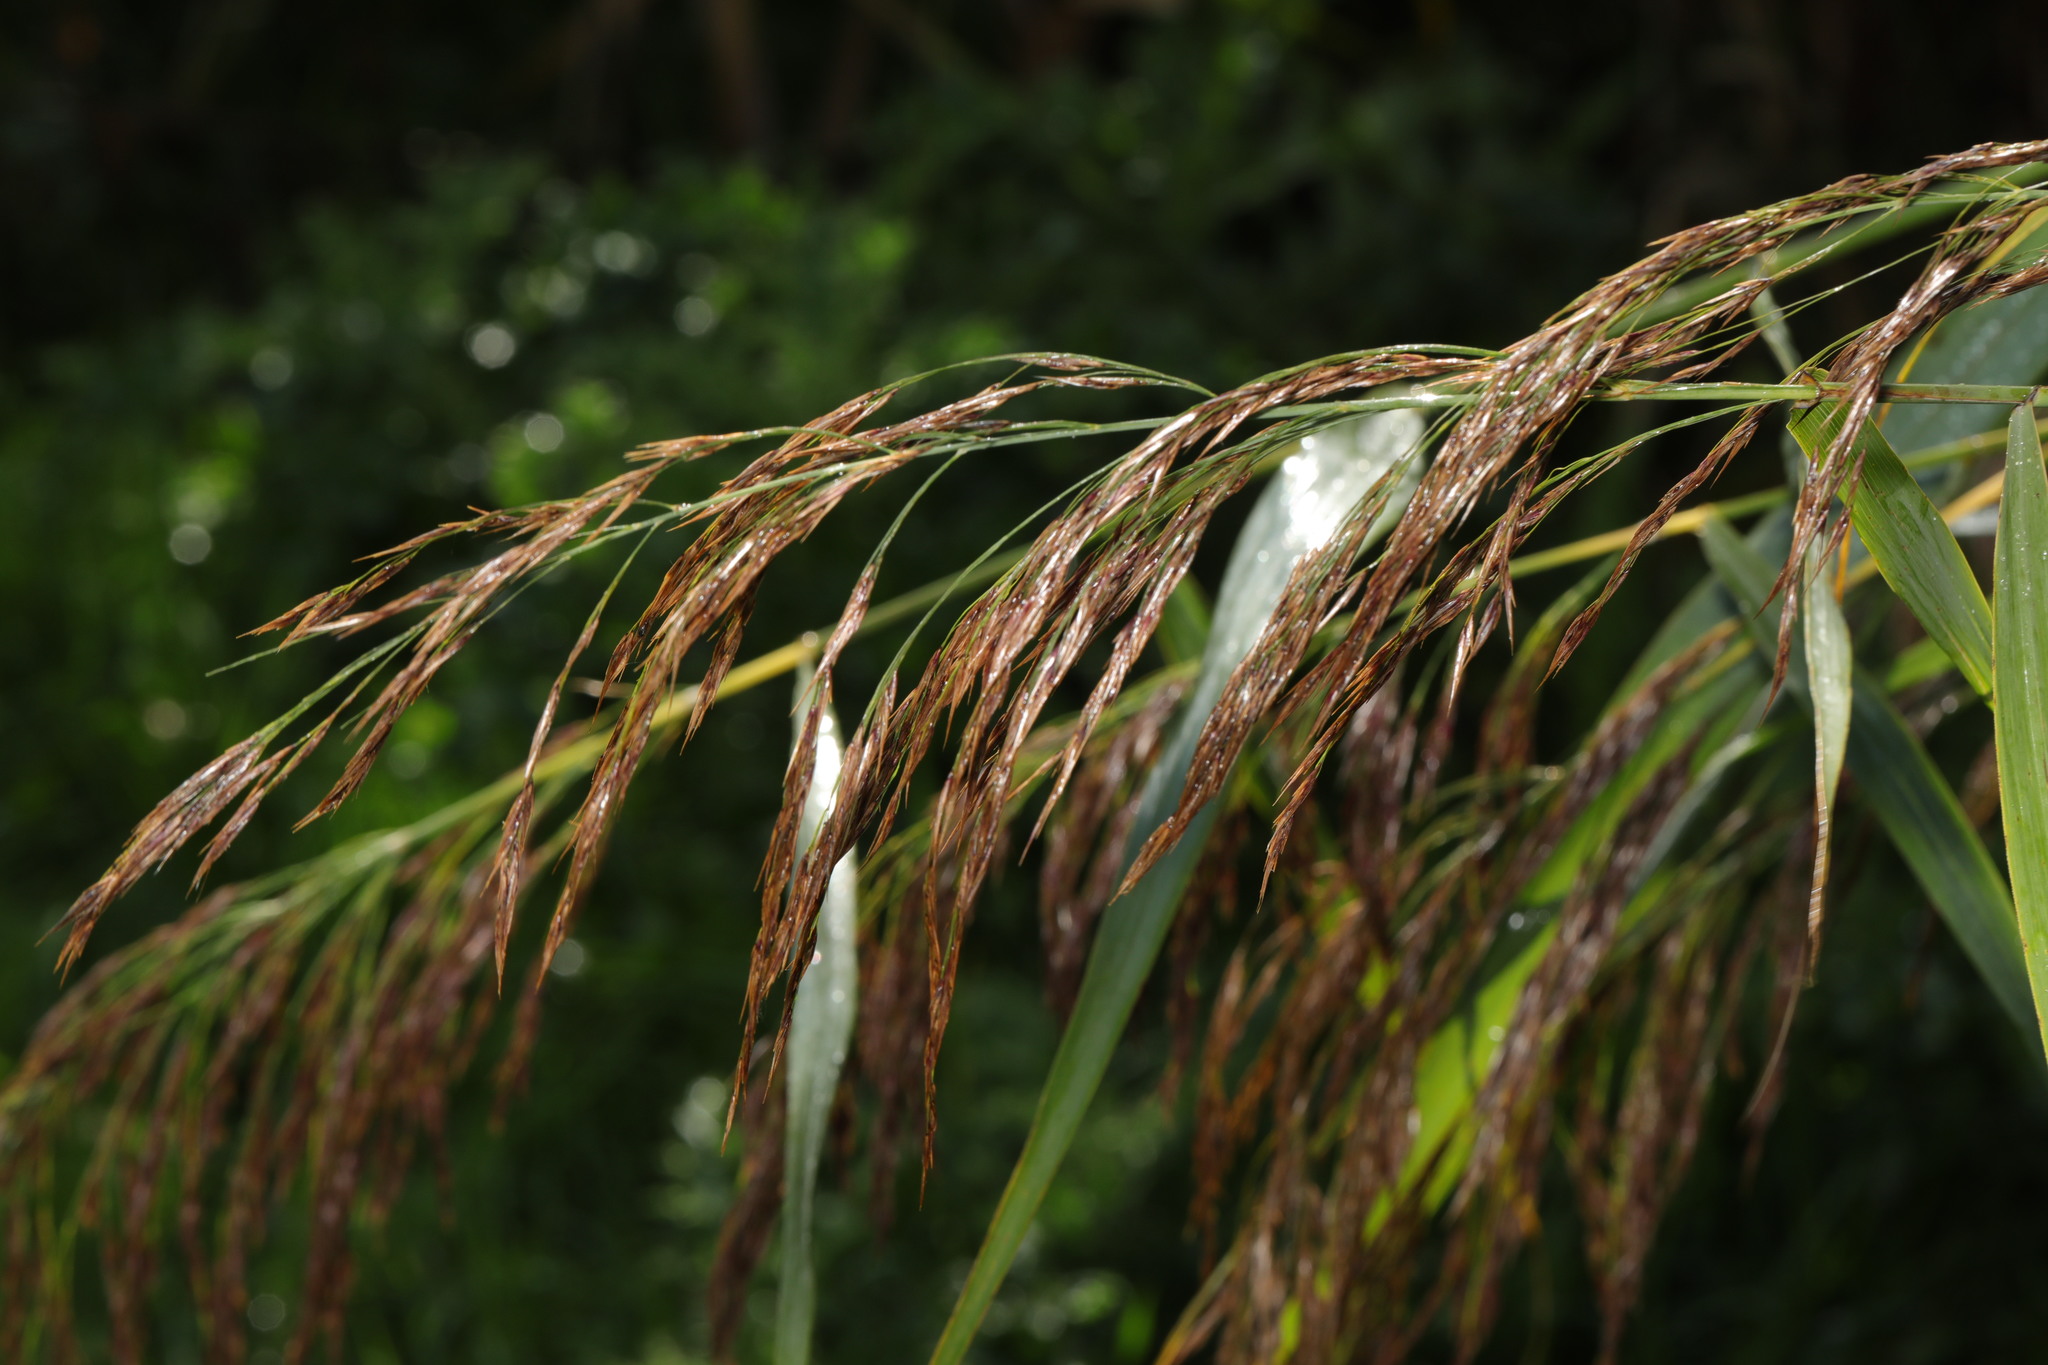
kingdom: Plantae
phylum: Tracheophyta
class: Liliopsida
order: Poales
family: Poaceae
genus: Phragmites
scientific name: Phragmites australis
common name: Common reed
